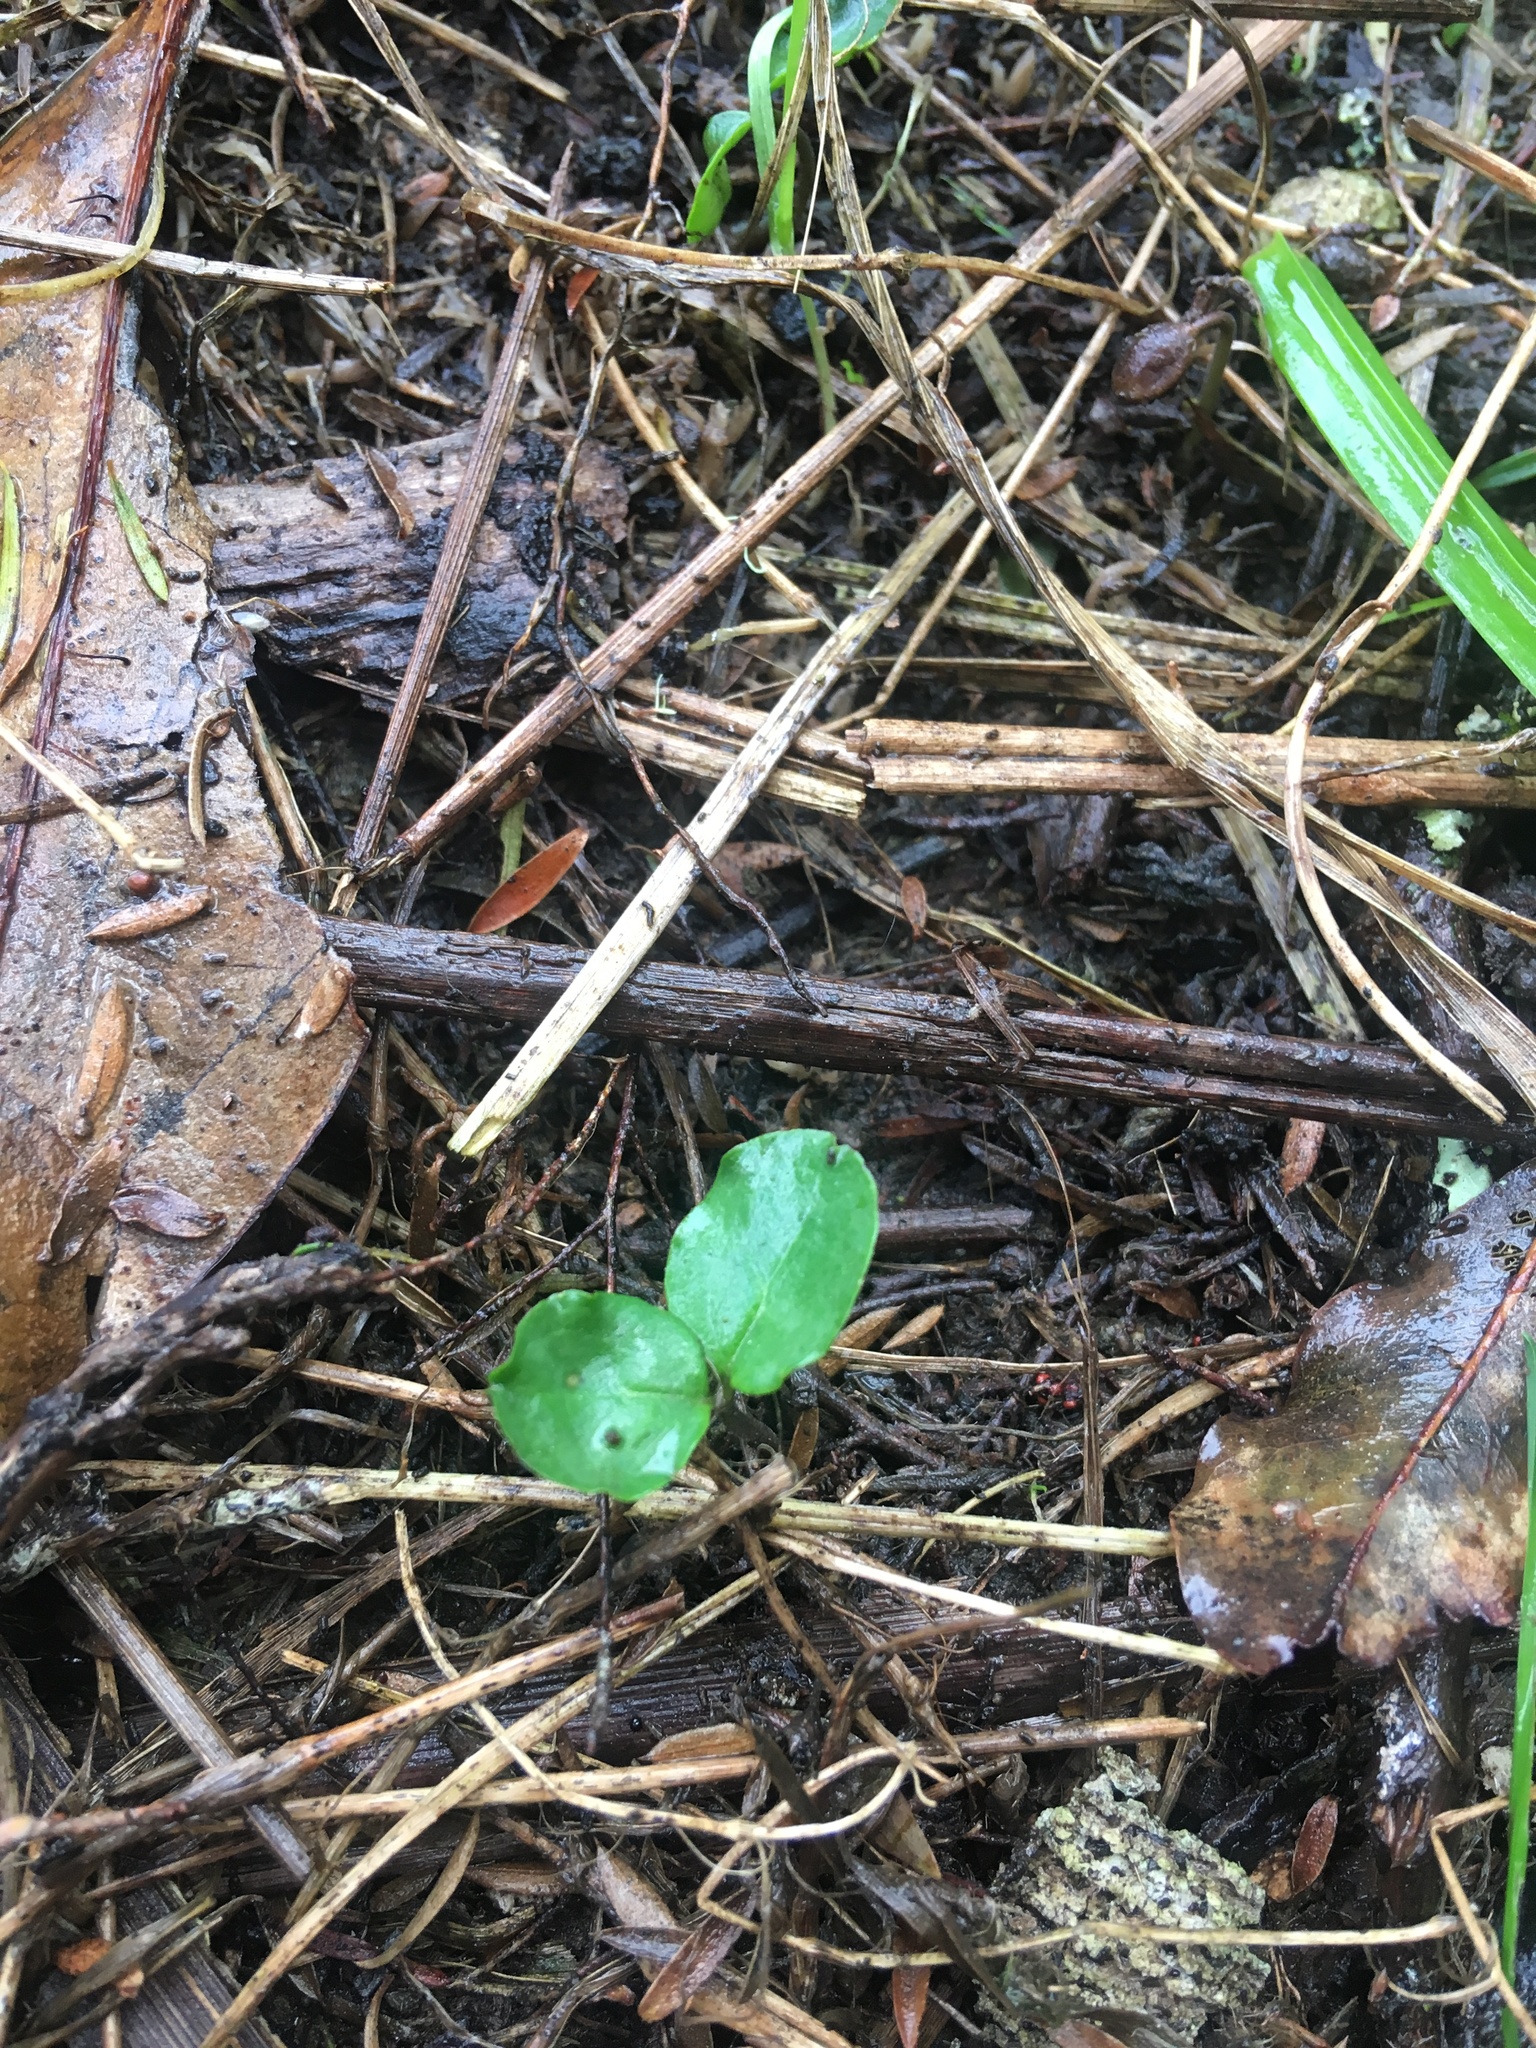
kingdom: Plantae
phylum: Tracheophyta
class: Magnoliopsida
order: Lamiales
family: Oleaceae
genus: Ligustrum
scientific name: Ligustrum sinense
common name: Chinese privet
